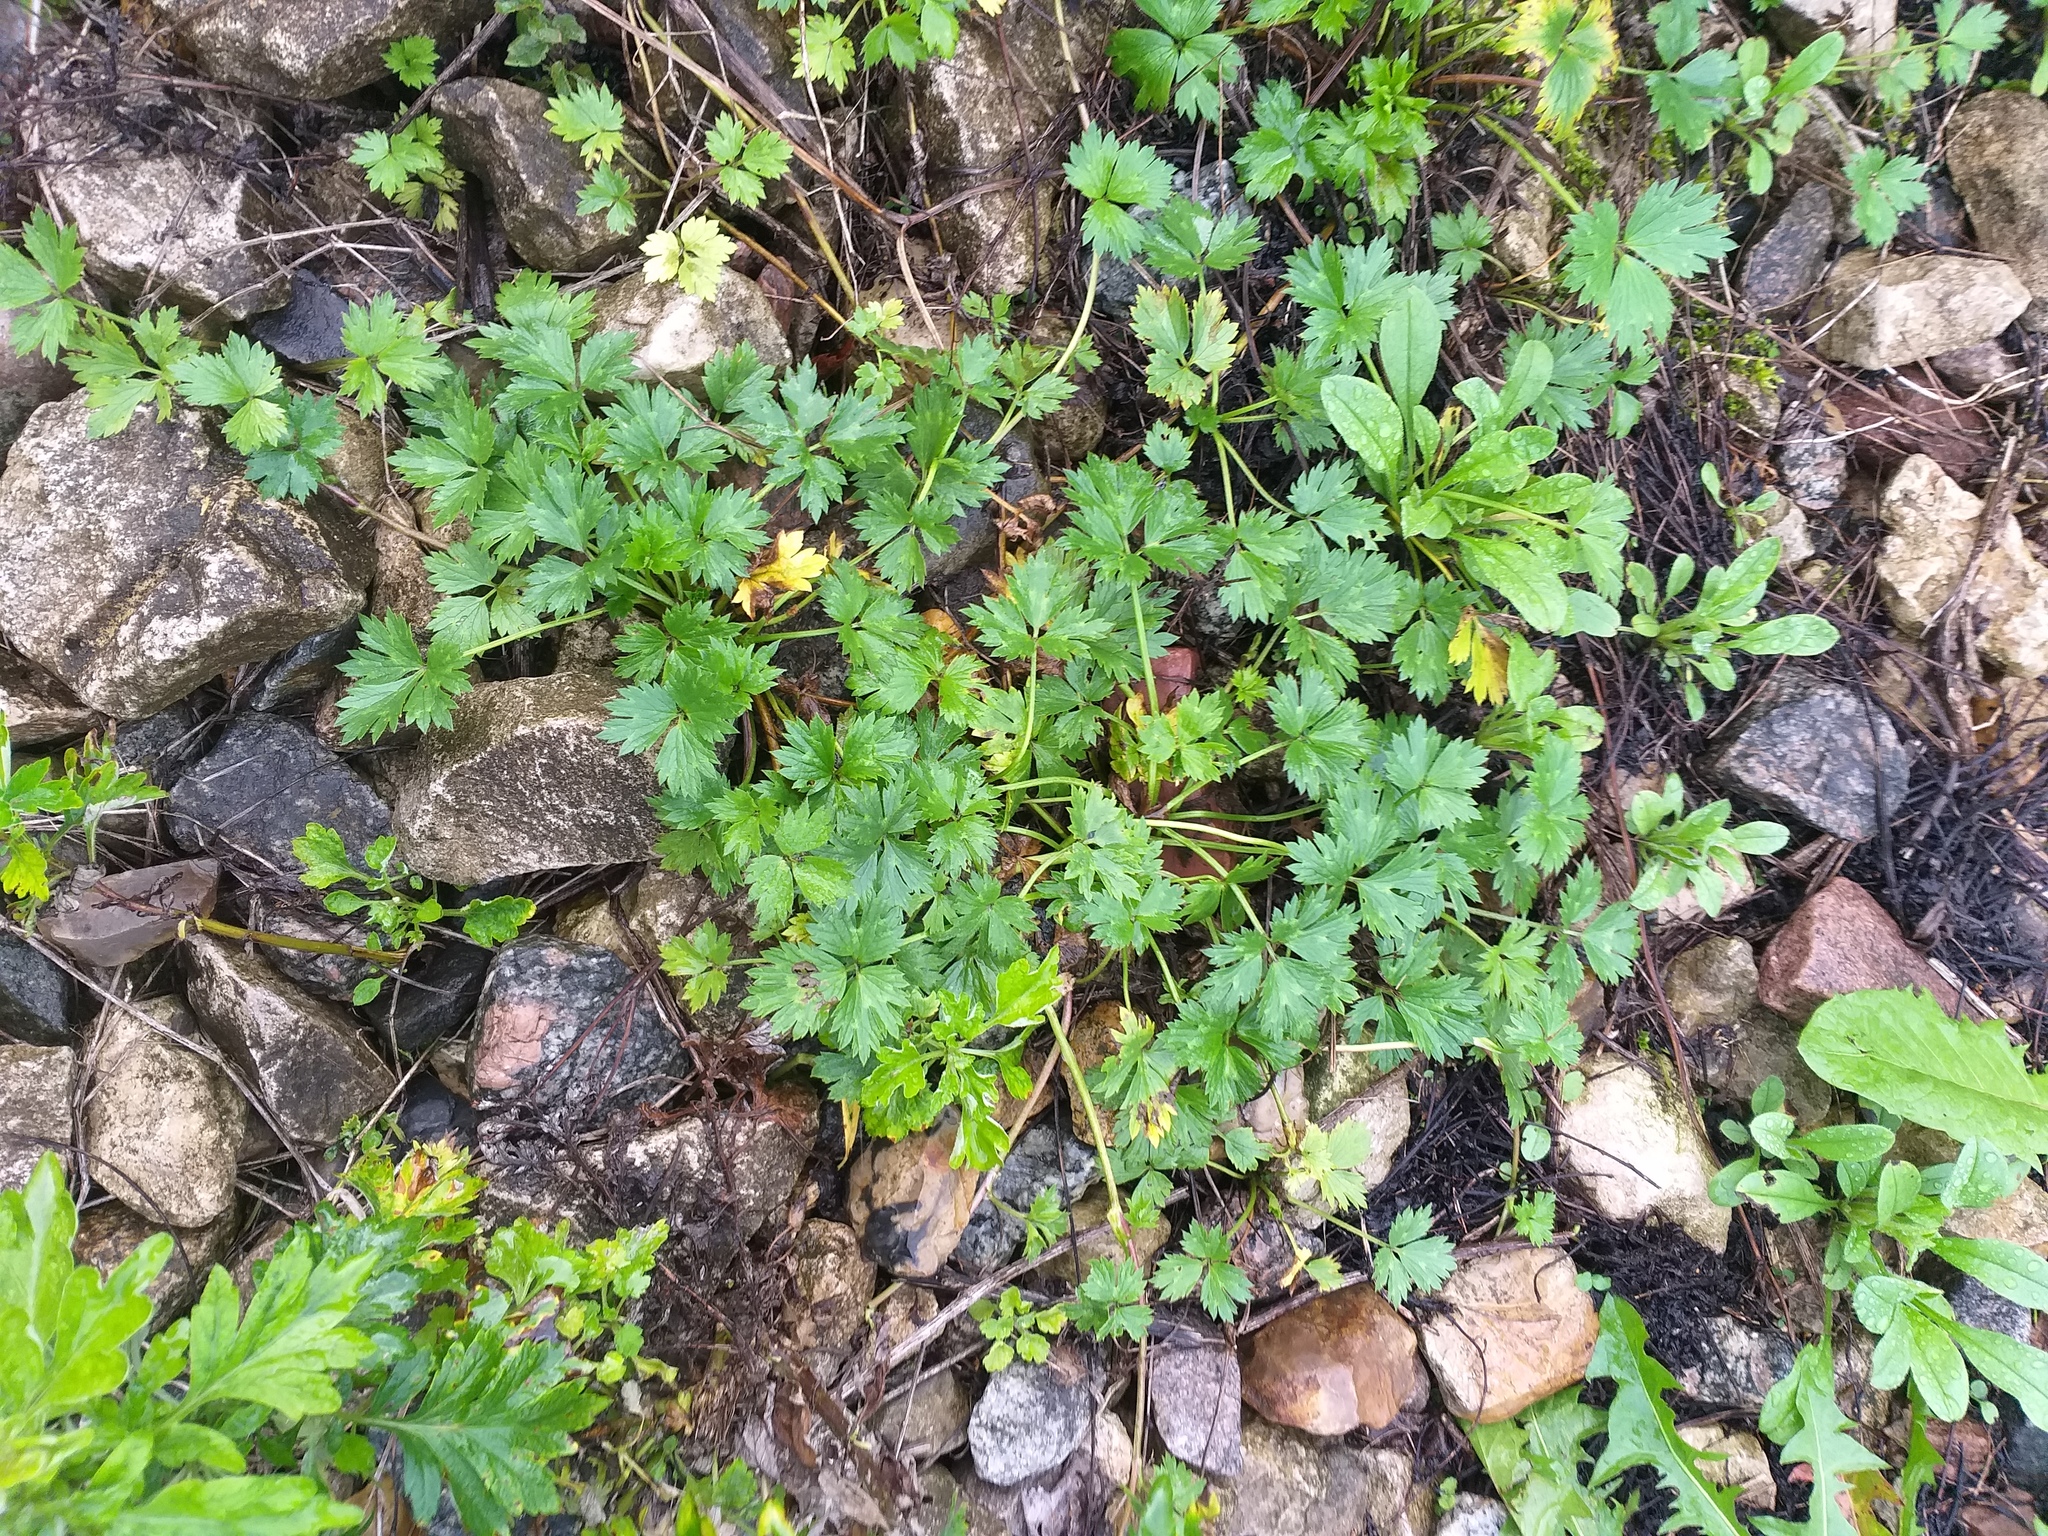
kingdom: Plantae
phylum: Tracheophyta
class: Magnoliopsida
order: Ranunculales
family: Ranunculaceae
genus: Ranunculus
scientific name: Ranunculus repens
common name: Creeping buttercup
